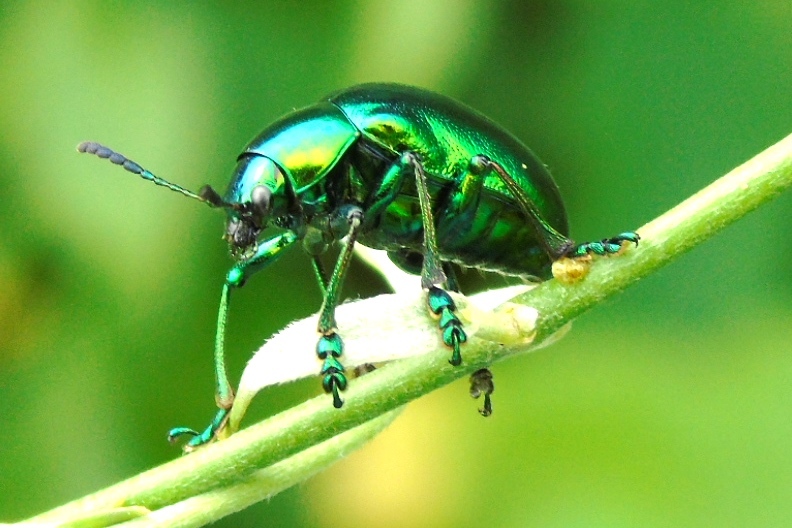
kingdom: Animalia
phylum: Arthropoda
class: Insecta
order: Coleoptera
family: Chrysomelidae
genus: Eumolpus
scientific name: Eumolpus robustus
